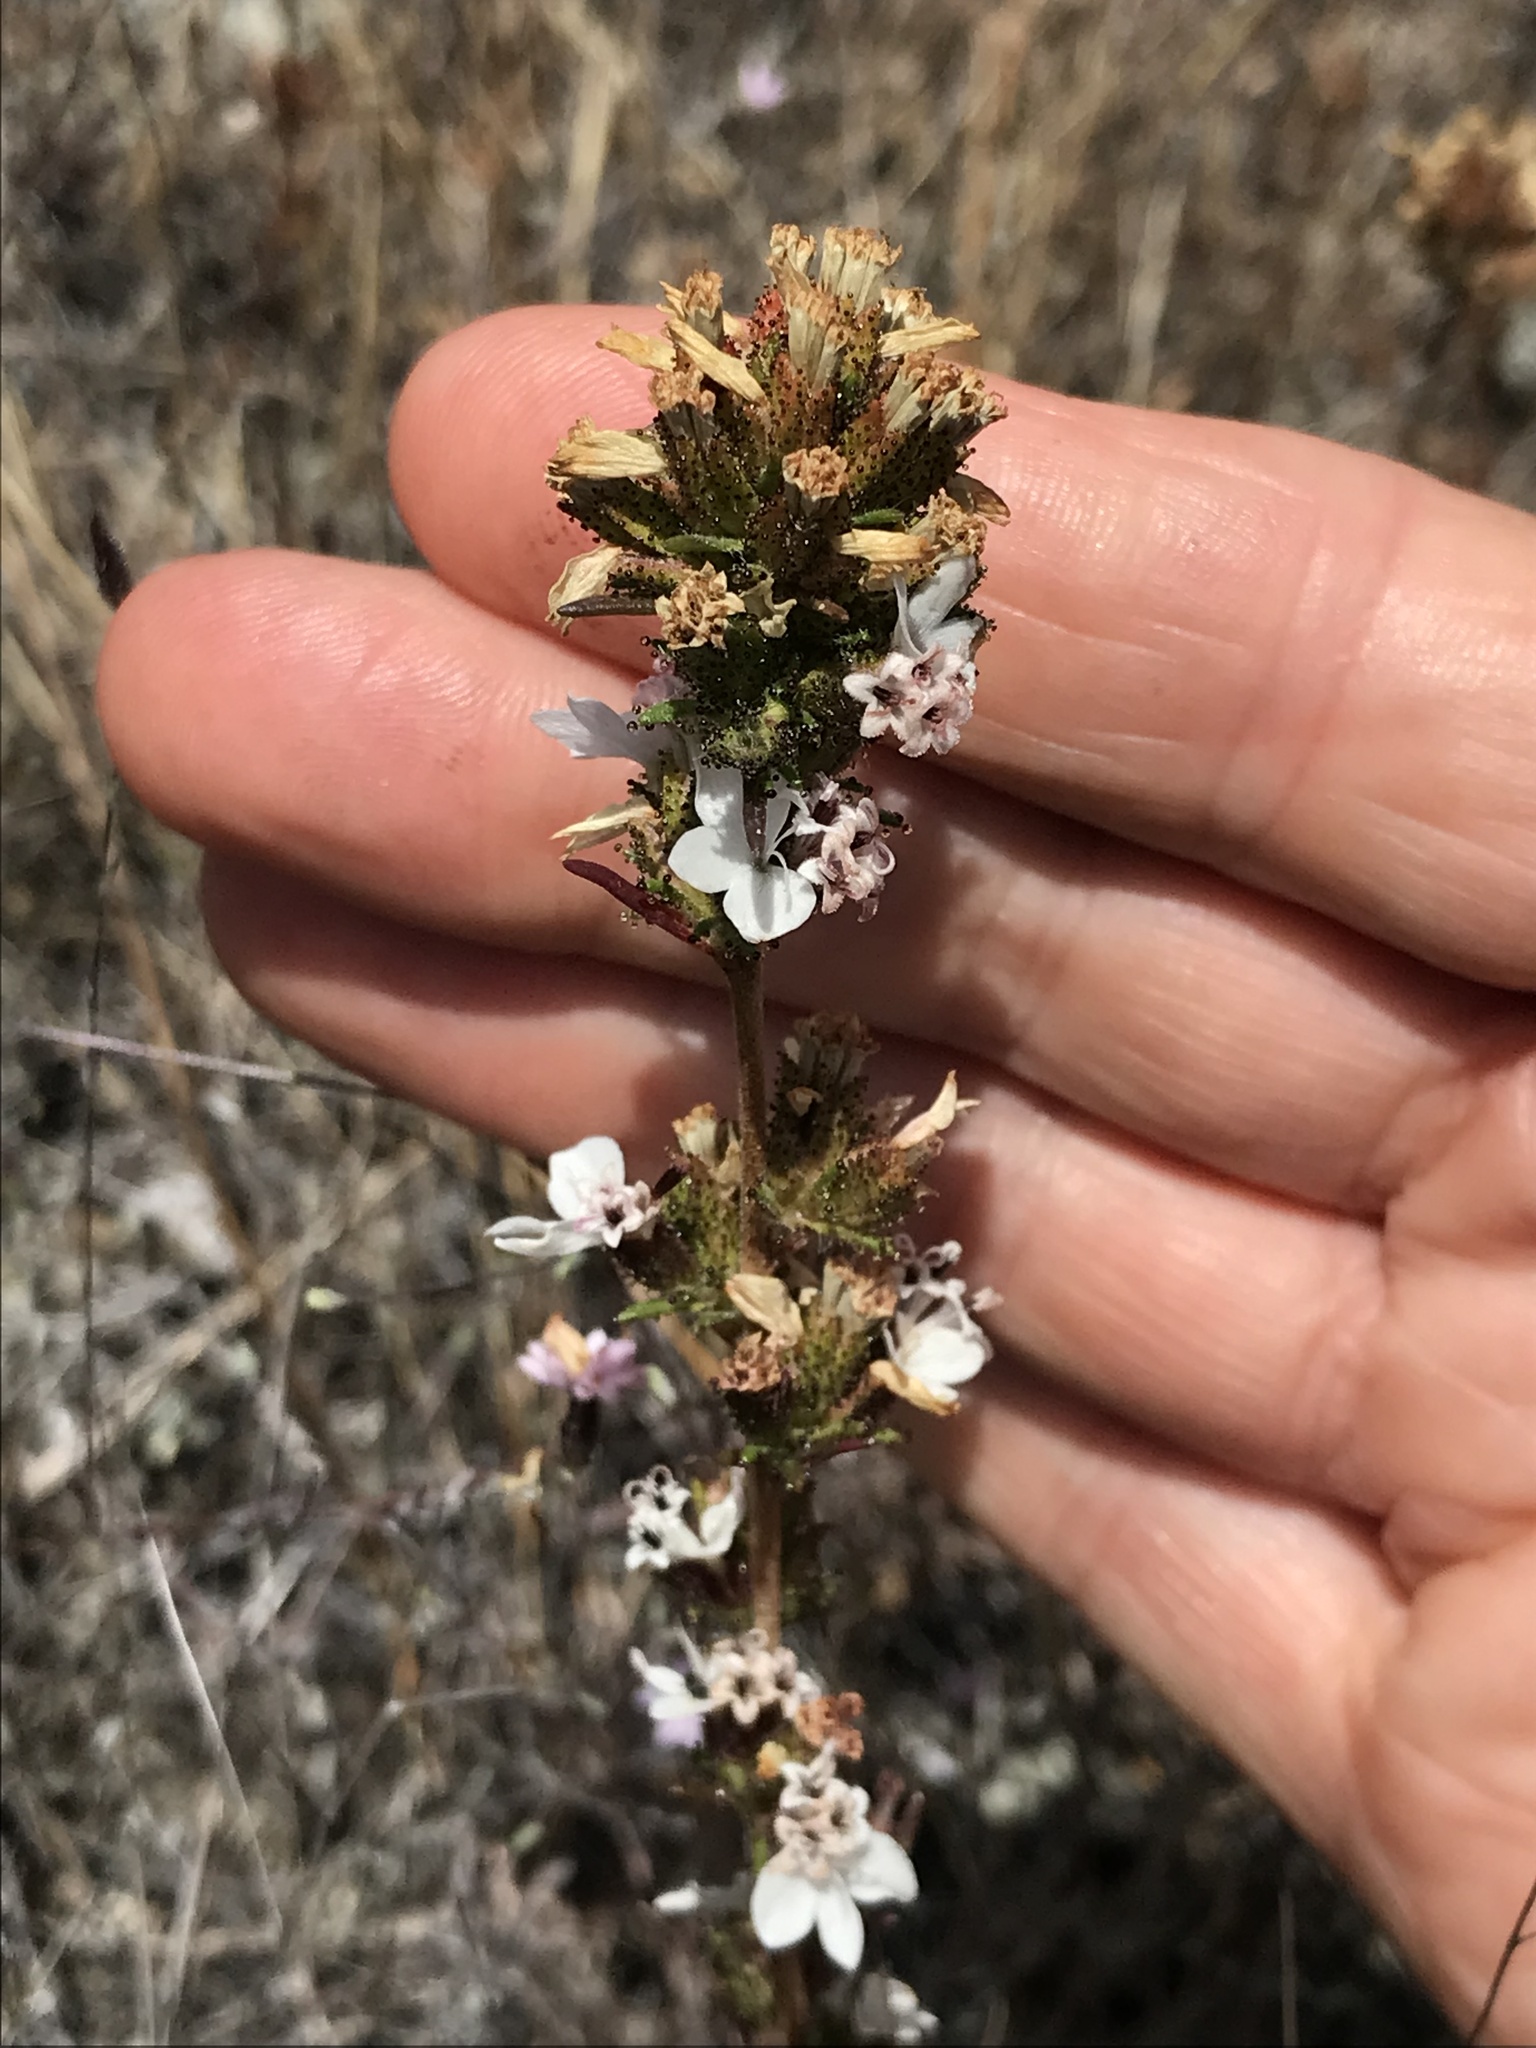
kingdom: Plantae
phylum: Tracheophyta
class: Magnoliopsida
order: Asterales
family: Asteraceae
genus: Calycadenia
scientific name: Calycadenia multiglandulosa
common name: Sticky calycadenia
